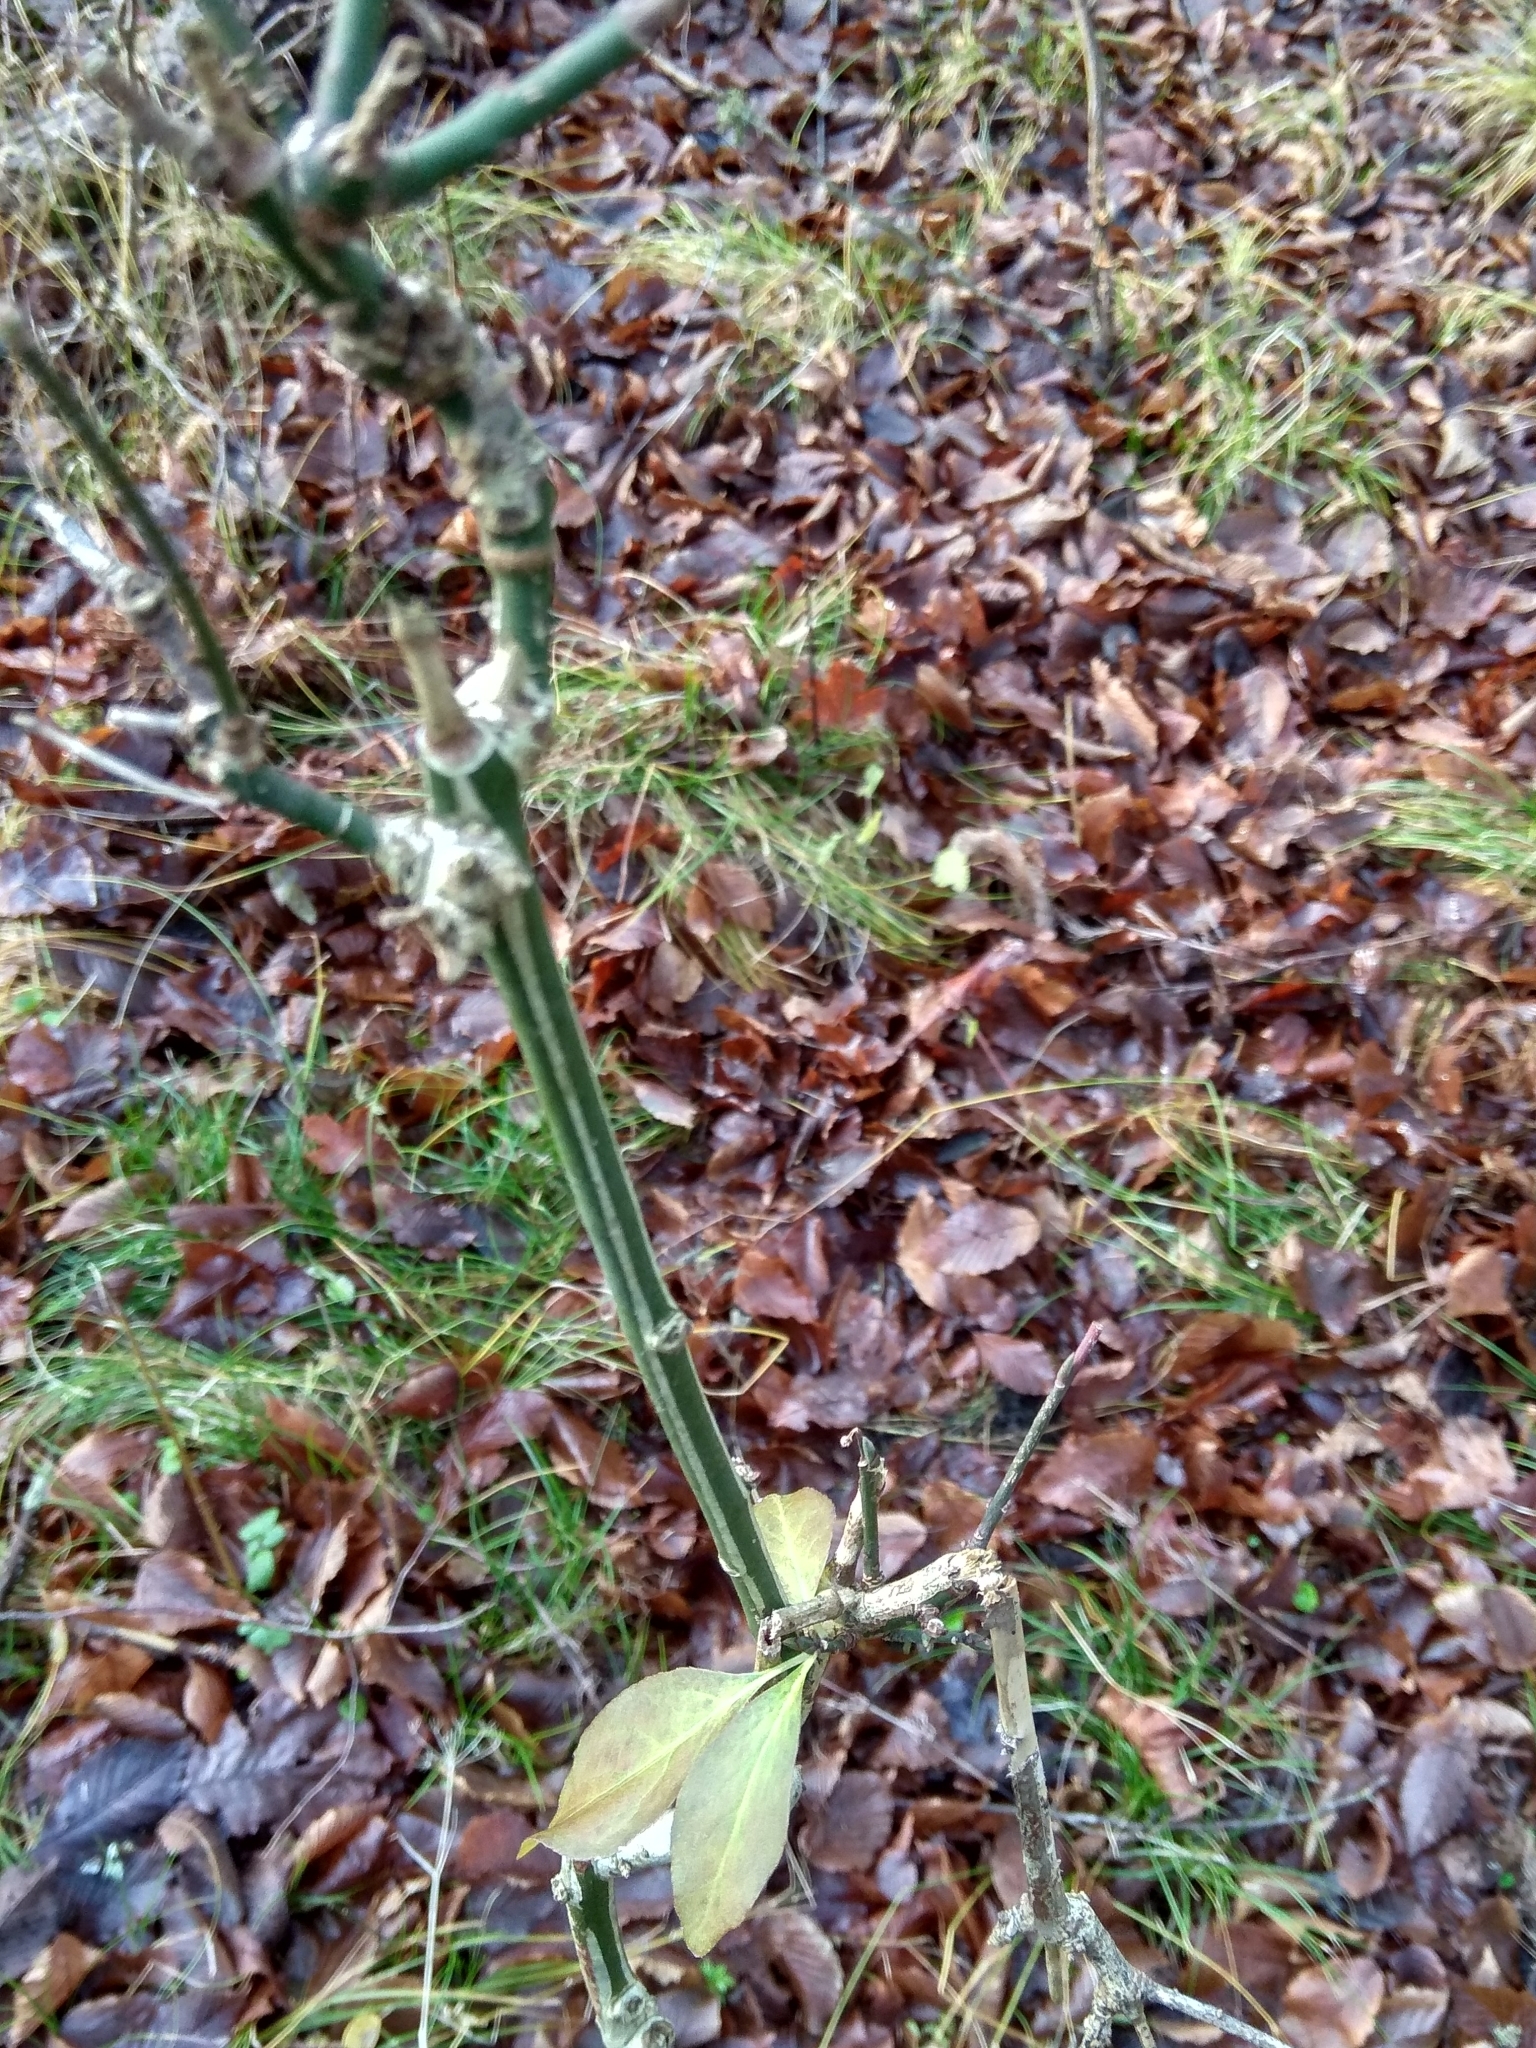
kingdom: Plantae
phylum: Tracheophyta
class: Magnoliopsida
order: Celastrales
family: Celastraceae
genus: Euonymus
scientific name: Euonymus europaeus
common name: Spindle
